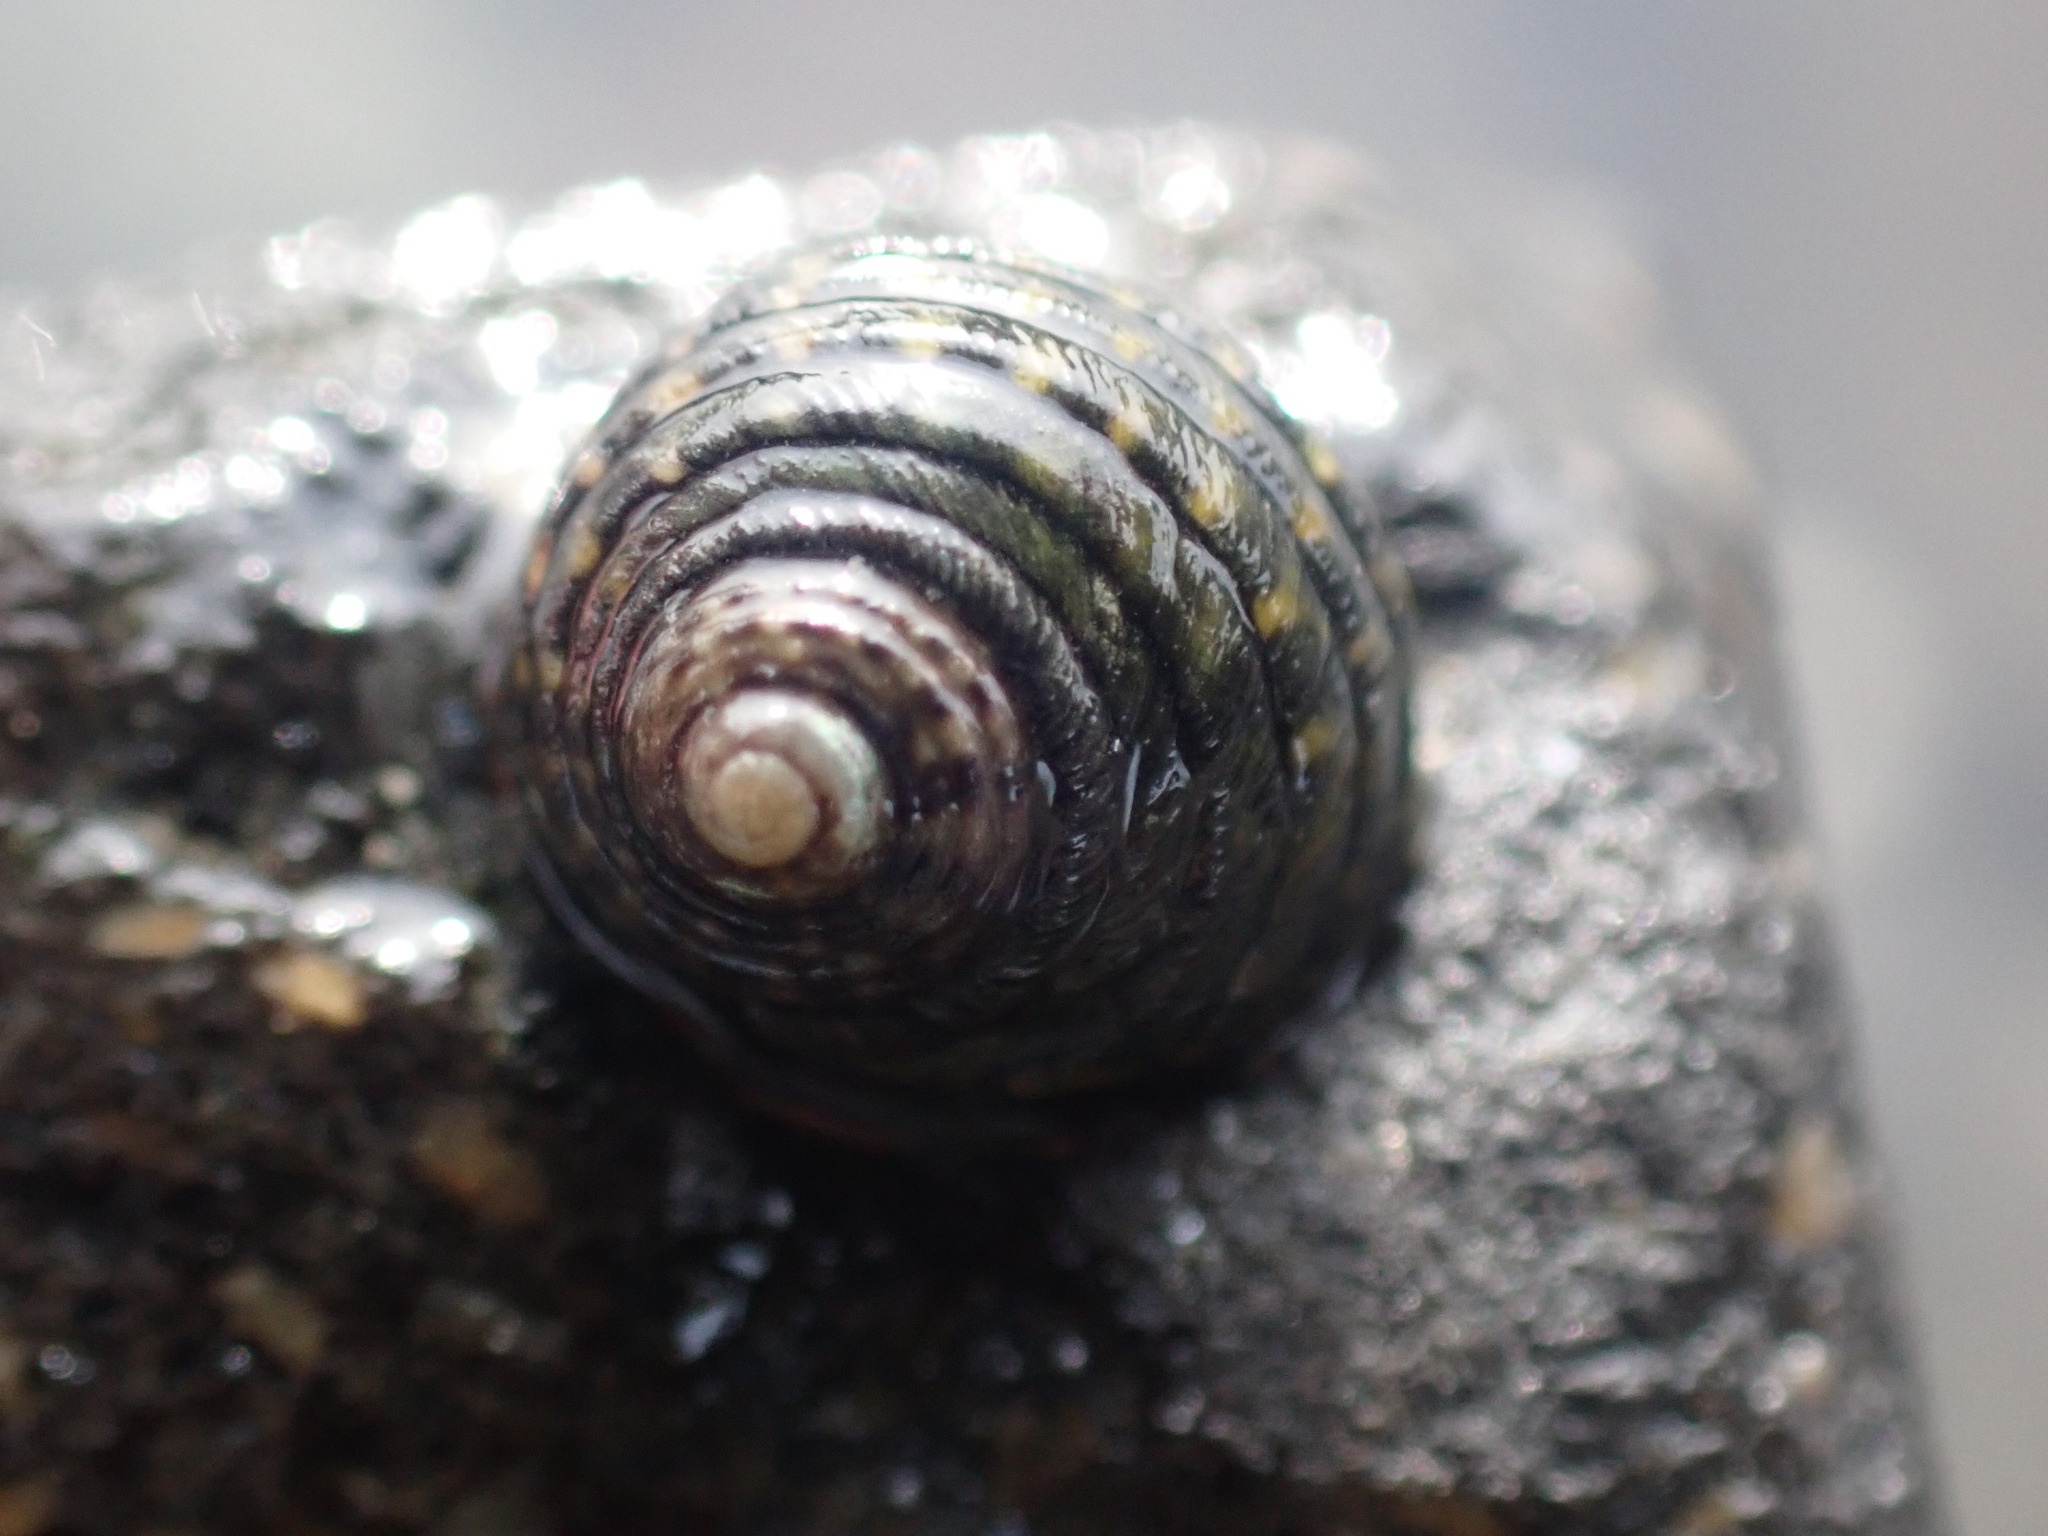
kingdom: Animalia
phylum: Mollusca
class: Gastropoda
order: Trochida
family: Trochidae
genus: Diloma
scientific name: Diloma aethiops
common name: Scorched monodont
